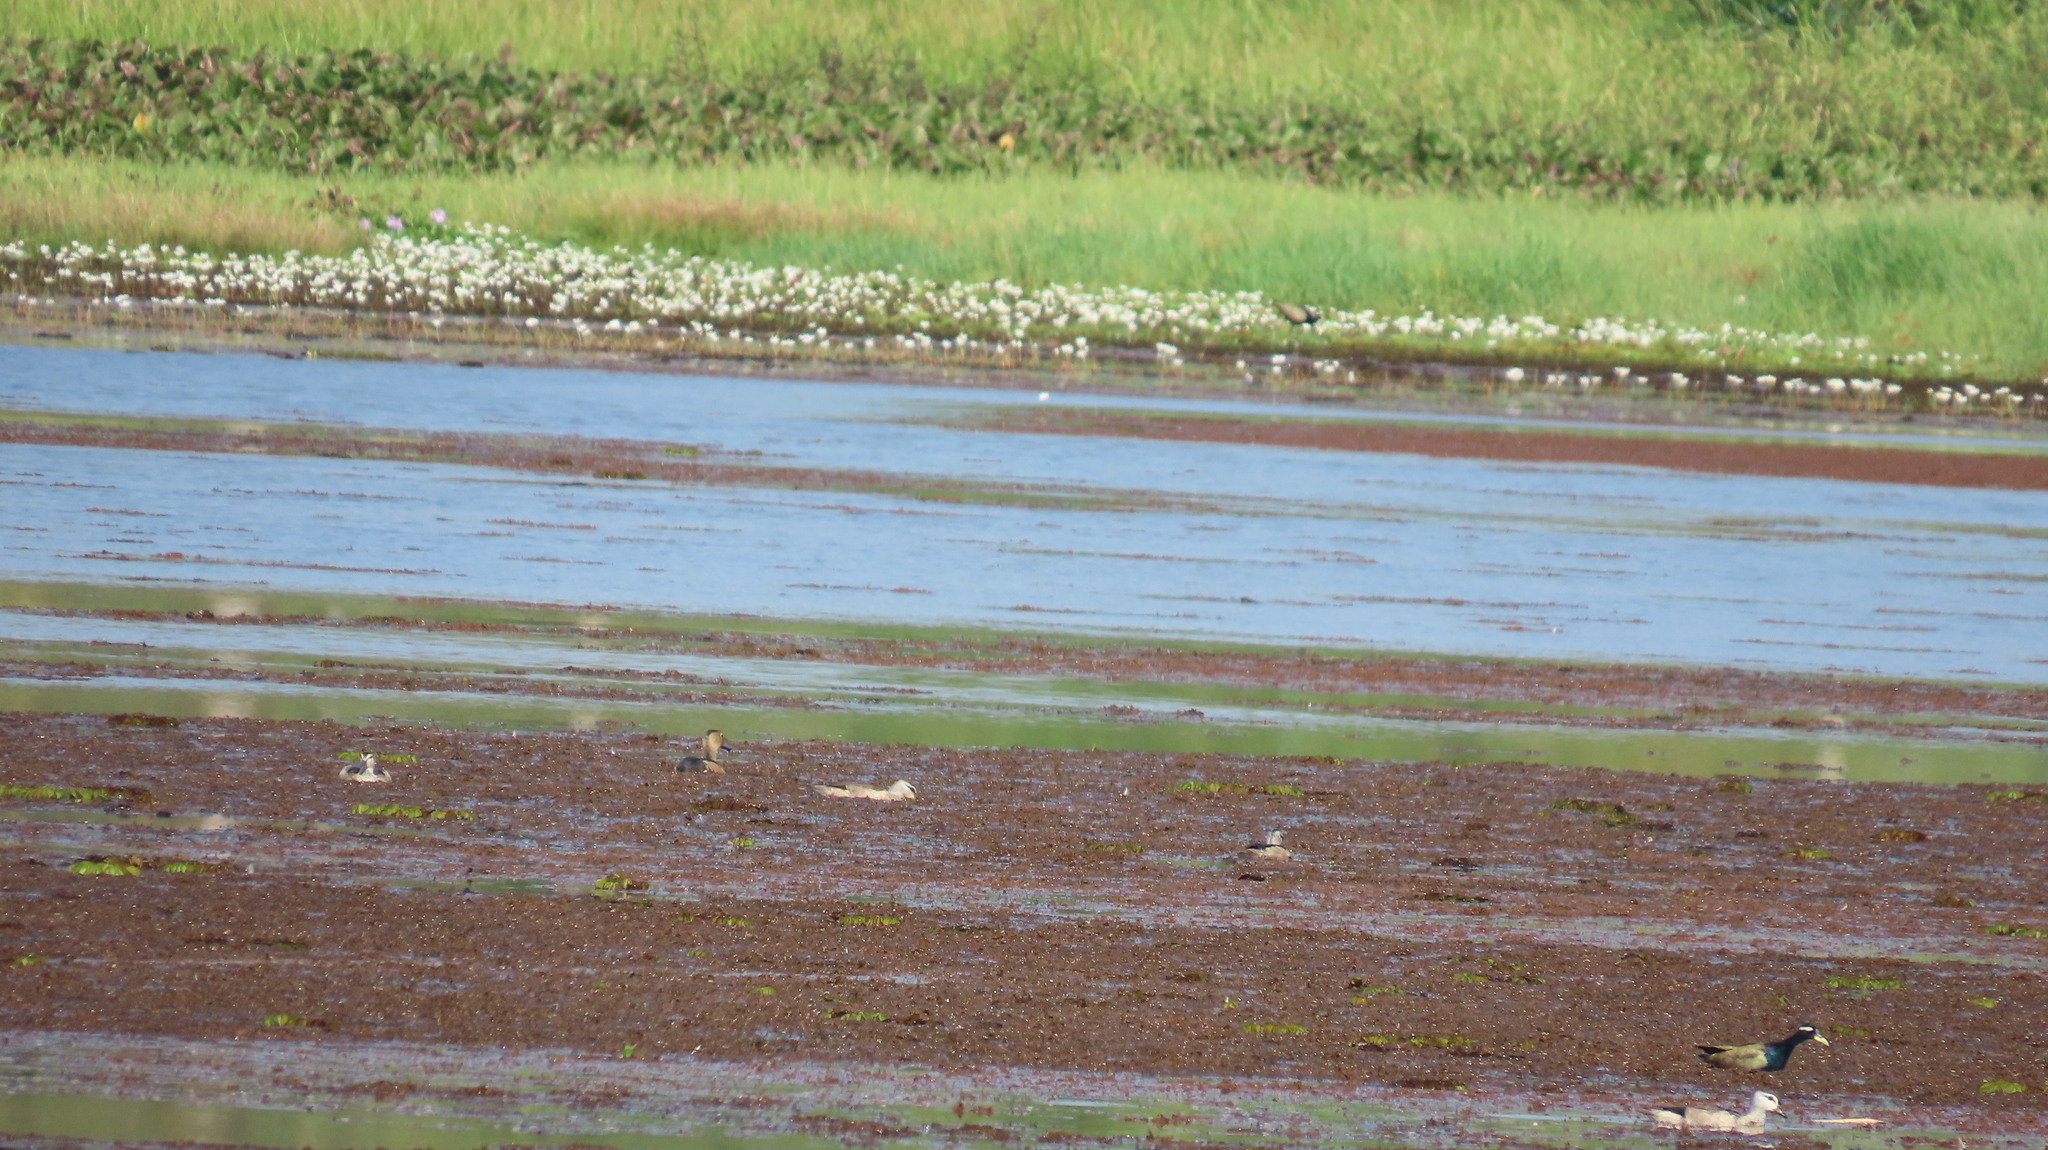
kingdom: Animalia
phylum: Chordata
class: Aves
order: Anseriformes
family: Anatidae
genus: Dendrocygna
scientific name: Dendrocygna javanica
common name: Lesser whistling-duck
